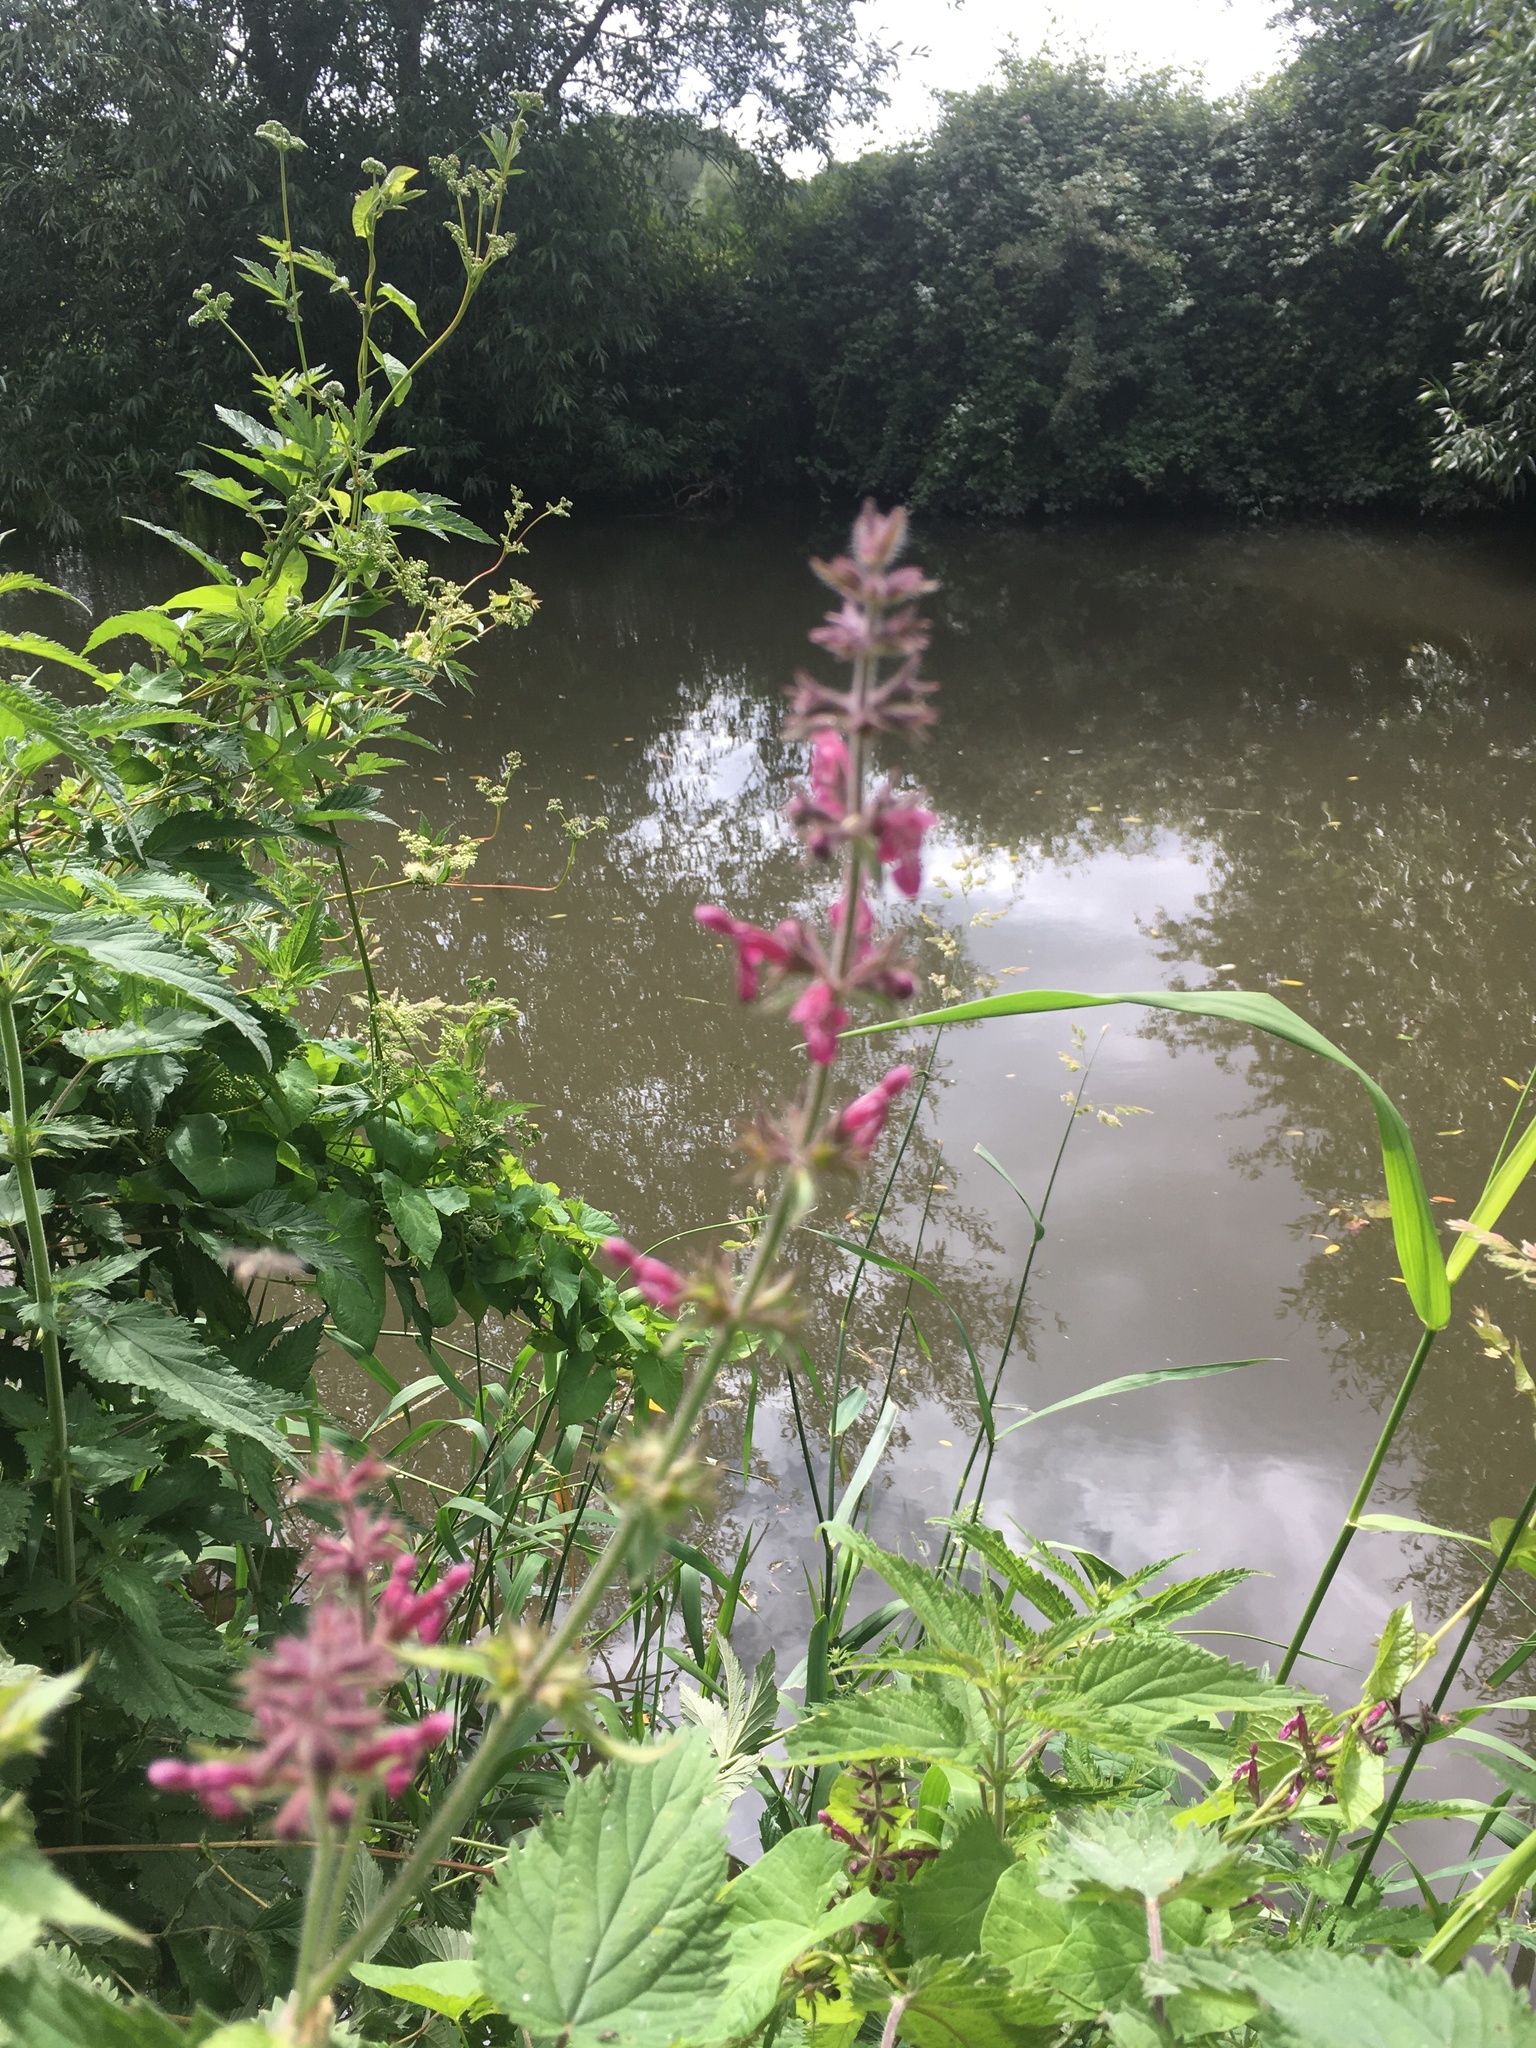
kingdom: Plantae
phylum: Tracheophyta
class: Magnoliopsida
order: Lamiales
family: Lamiaceae
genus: Stachys
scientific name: Stachys sylvatica
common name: Hedge woundwort
